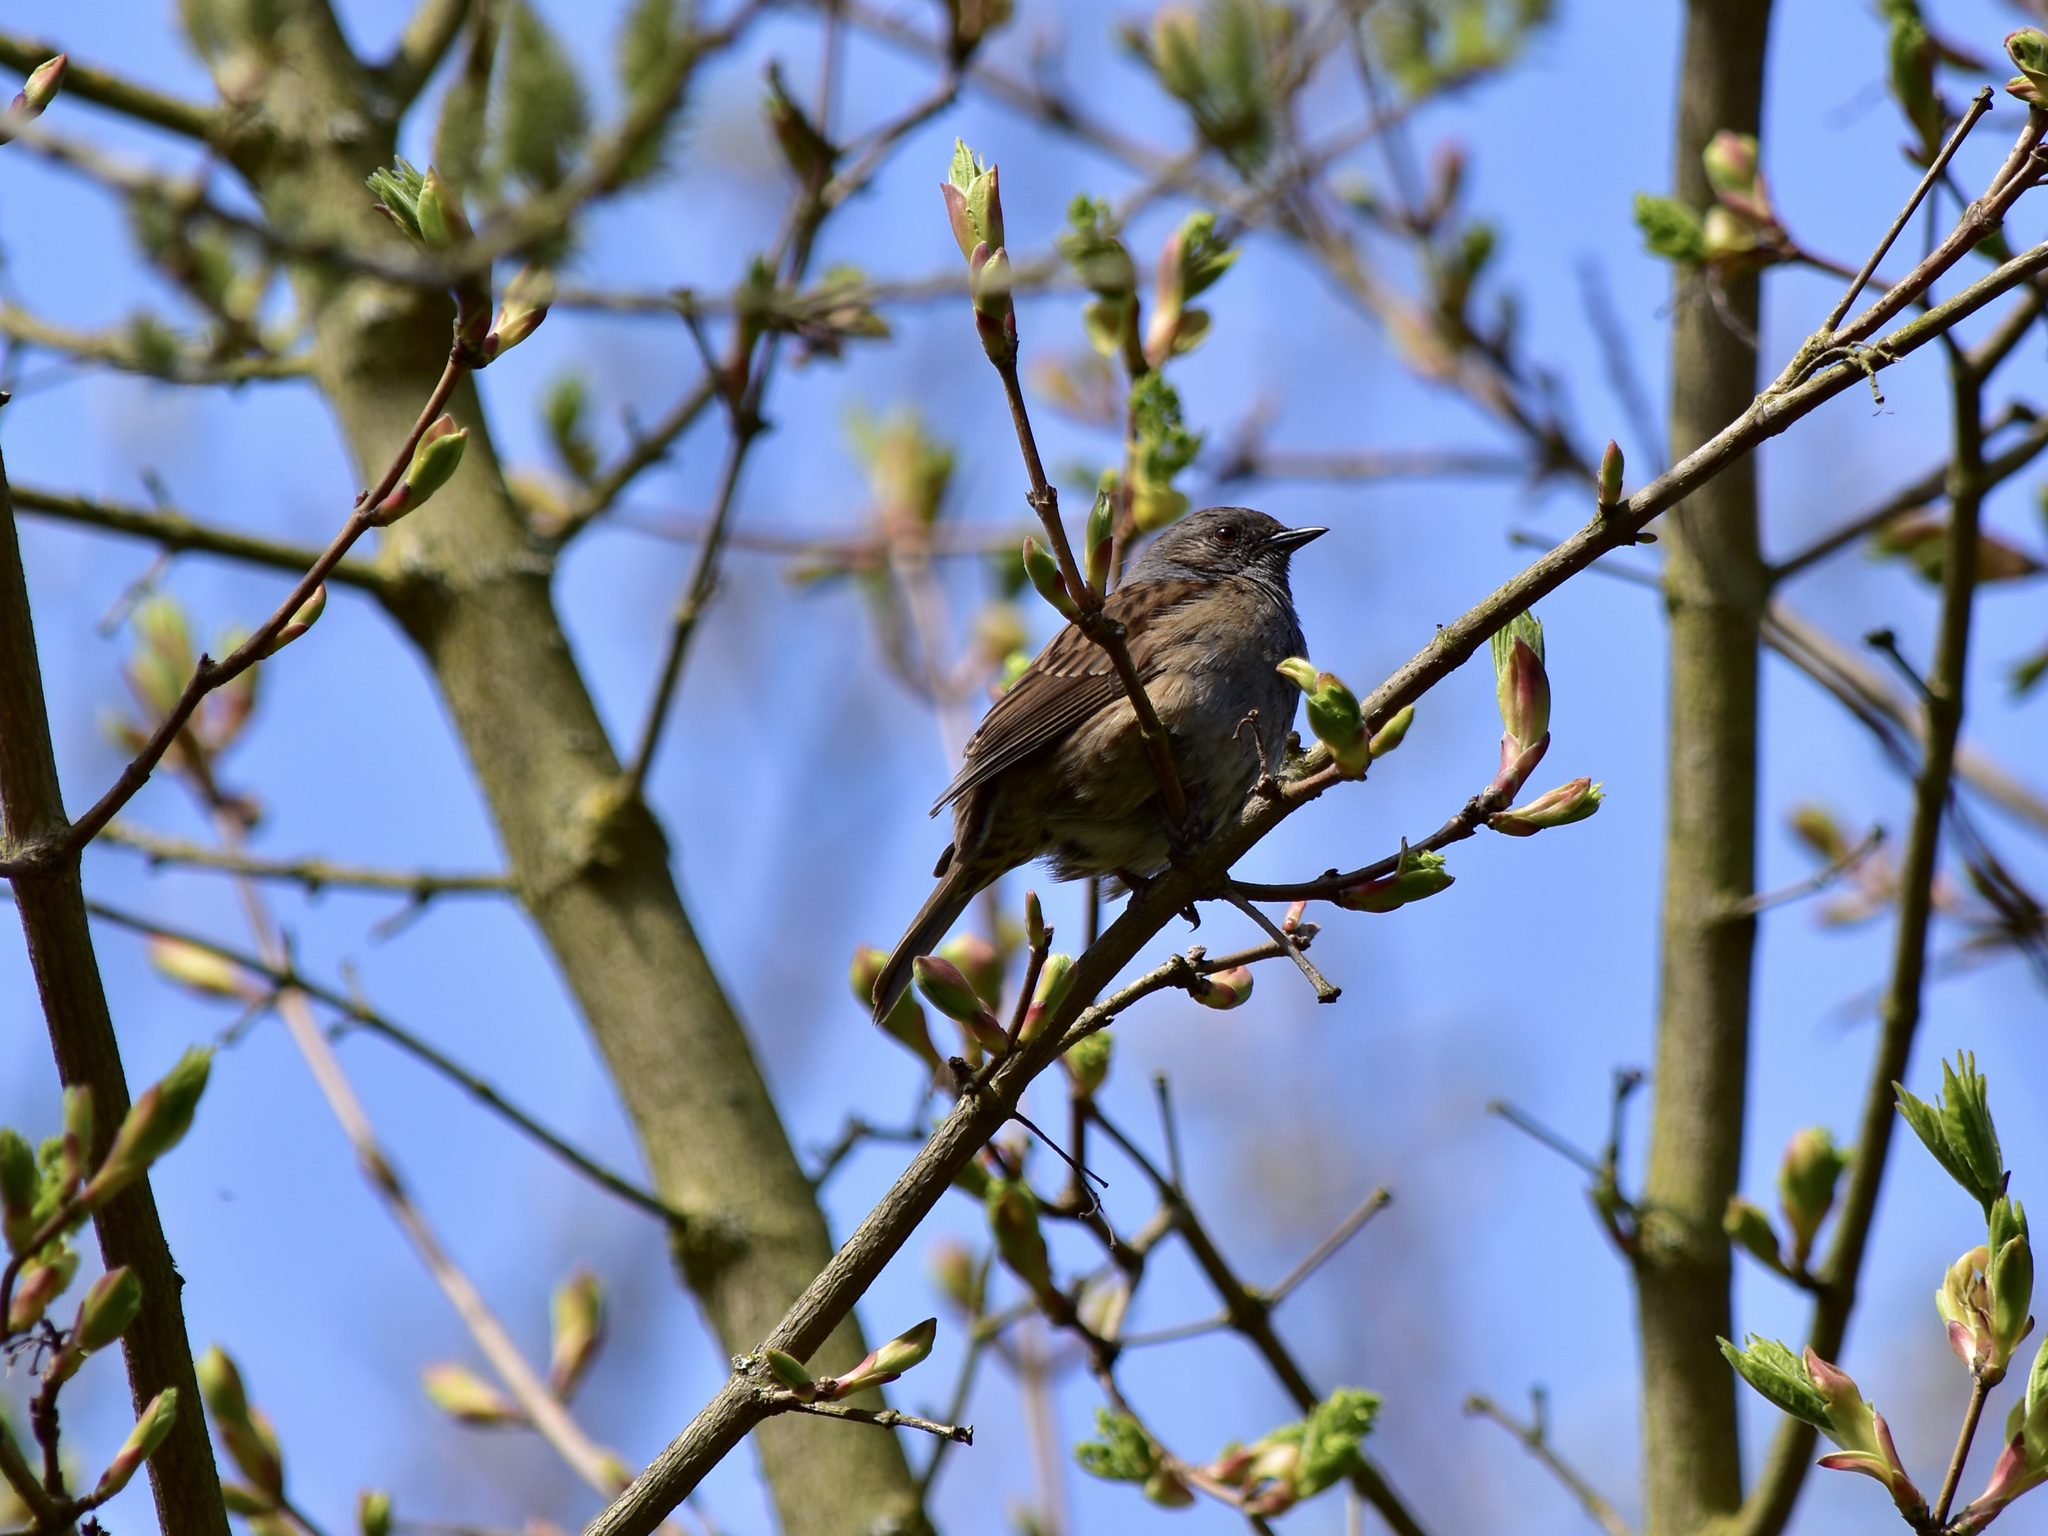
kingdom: Animalia
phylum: Chordata
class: Aves
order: Passeriformes
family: Prunellidae
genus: Prunella
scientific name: Prunella modularis
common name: Dunnock
